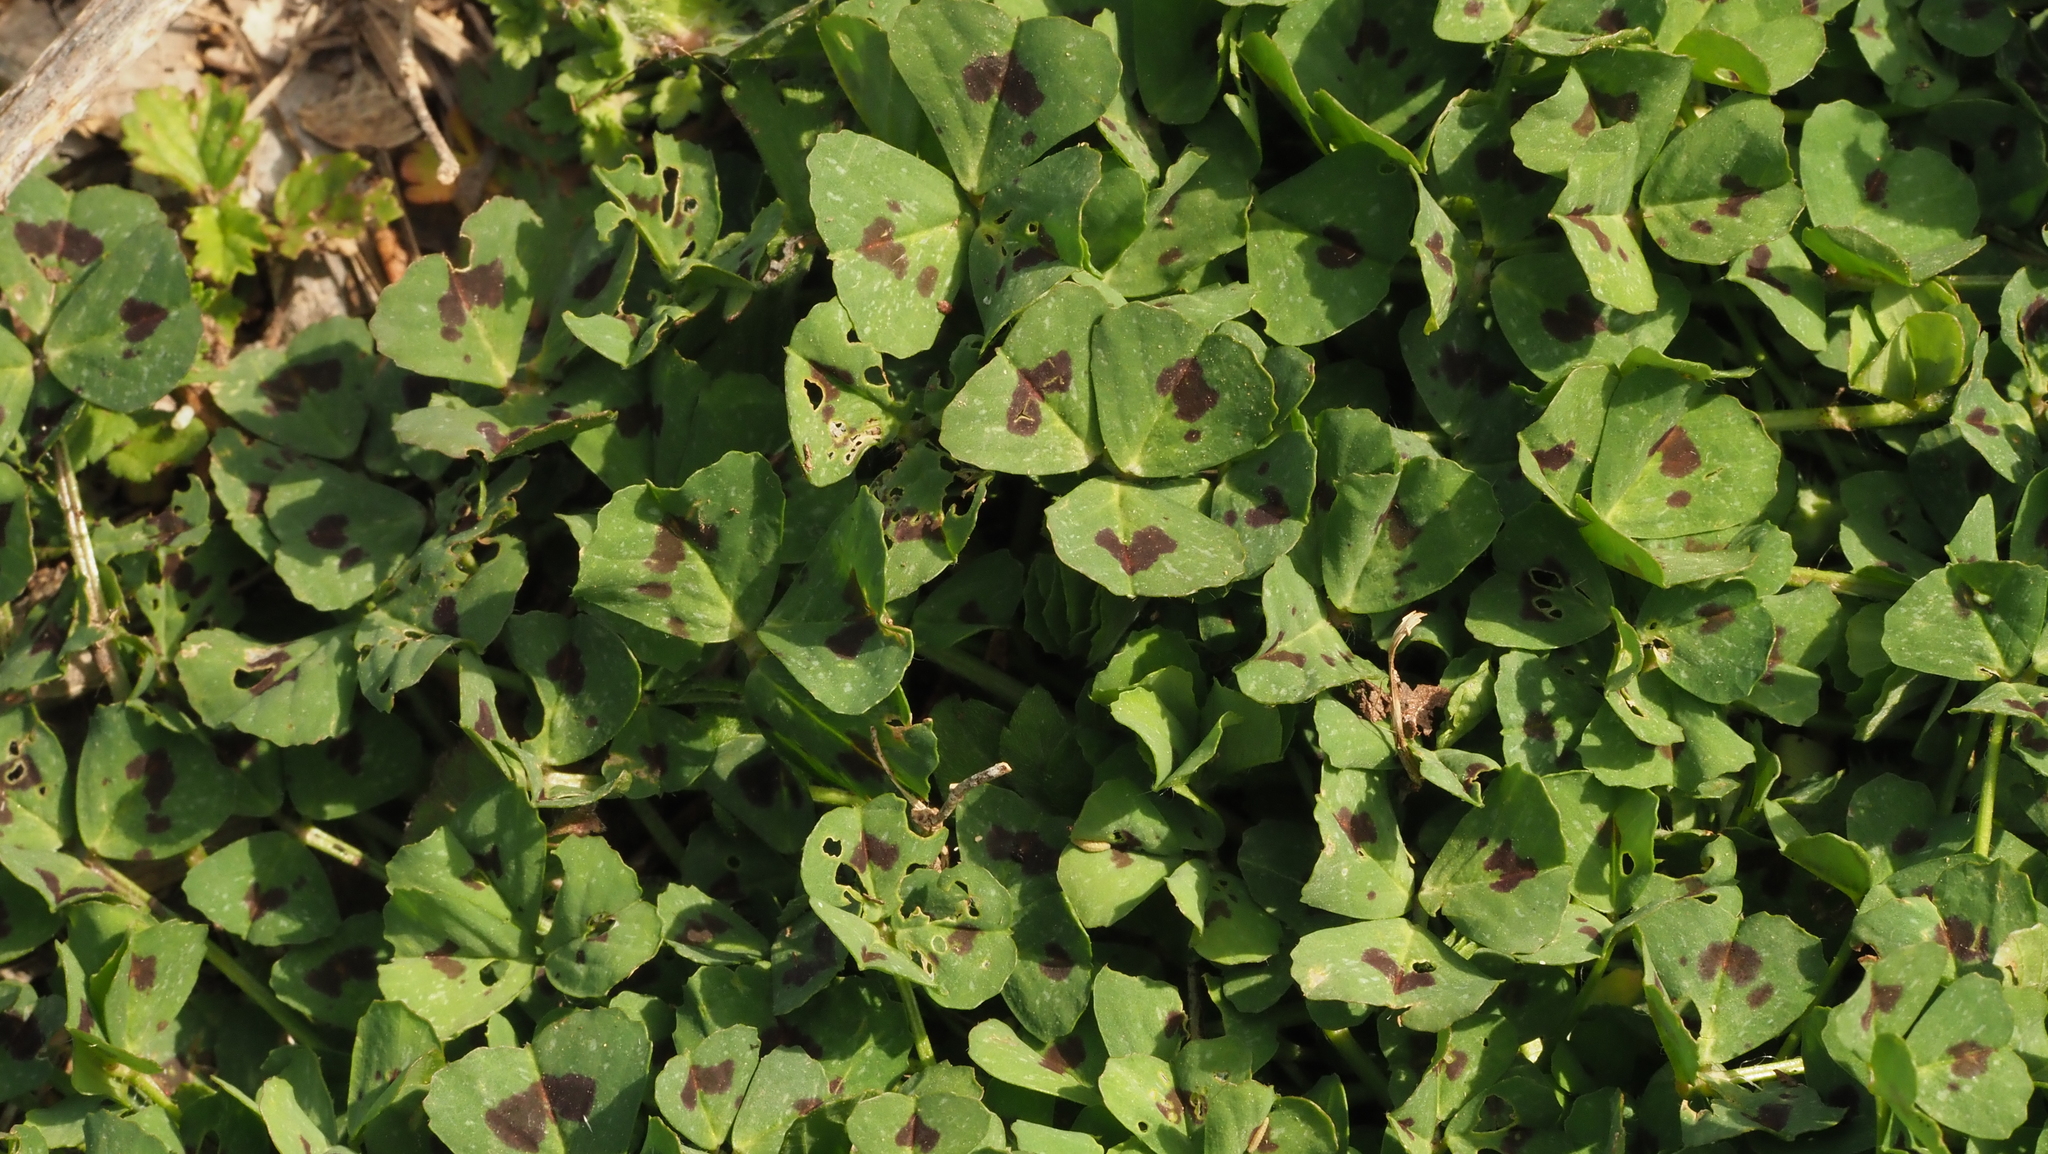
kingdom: Plantae
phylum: Tracheophyta
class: Magnoliopsida
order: Fabales
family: Fabaceae
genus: Medicago
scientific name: Medicago arabica
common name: Spotted medick
